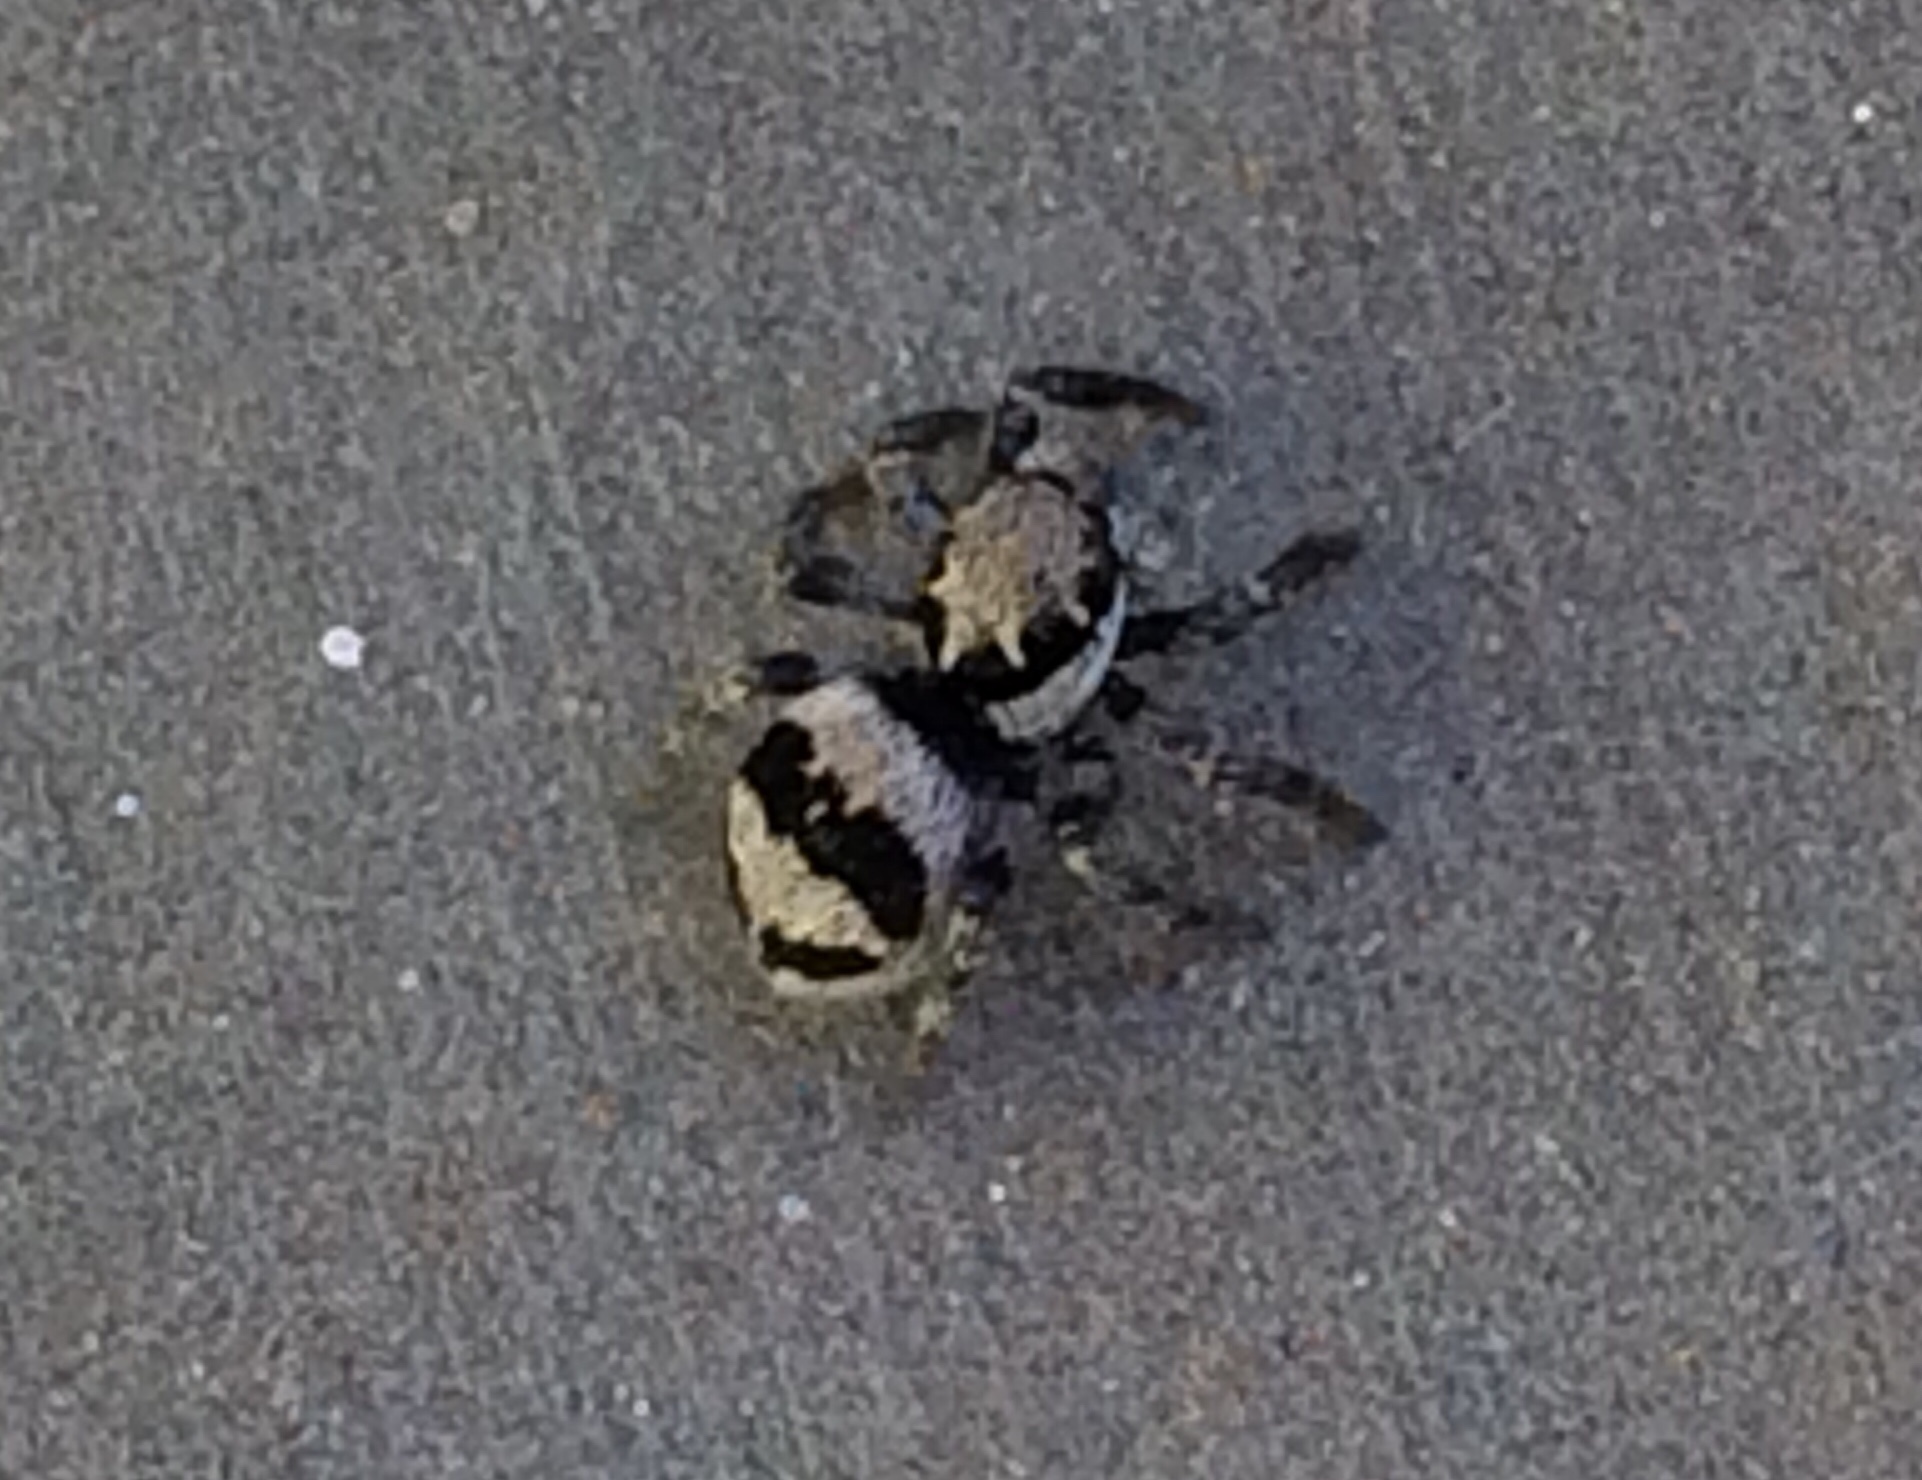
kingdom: Animalia
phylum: Arthropoda
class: Arachnida
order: Araneae
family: Salticidae
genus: Corythalia
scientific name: Corythalia fimbriata
